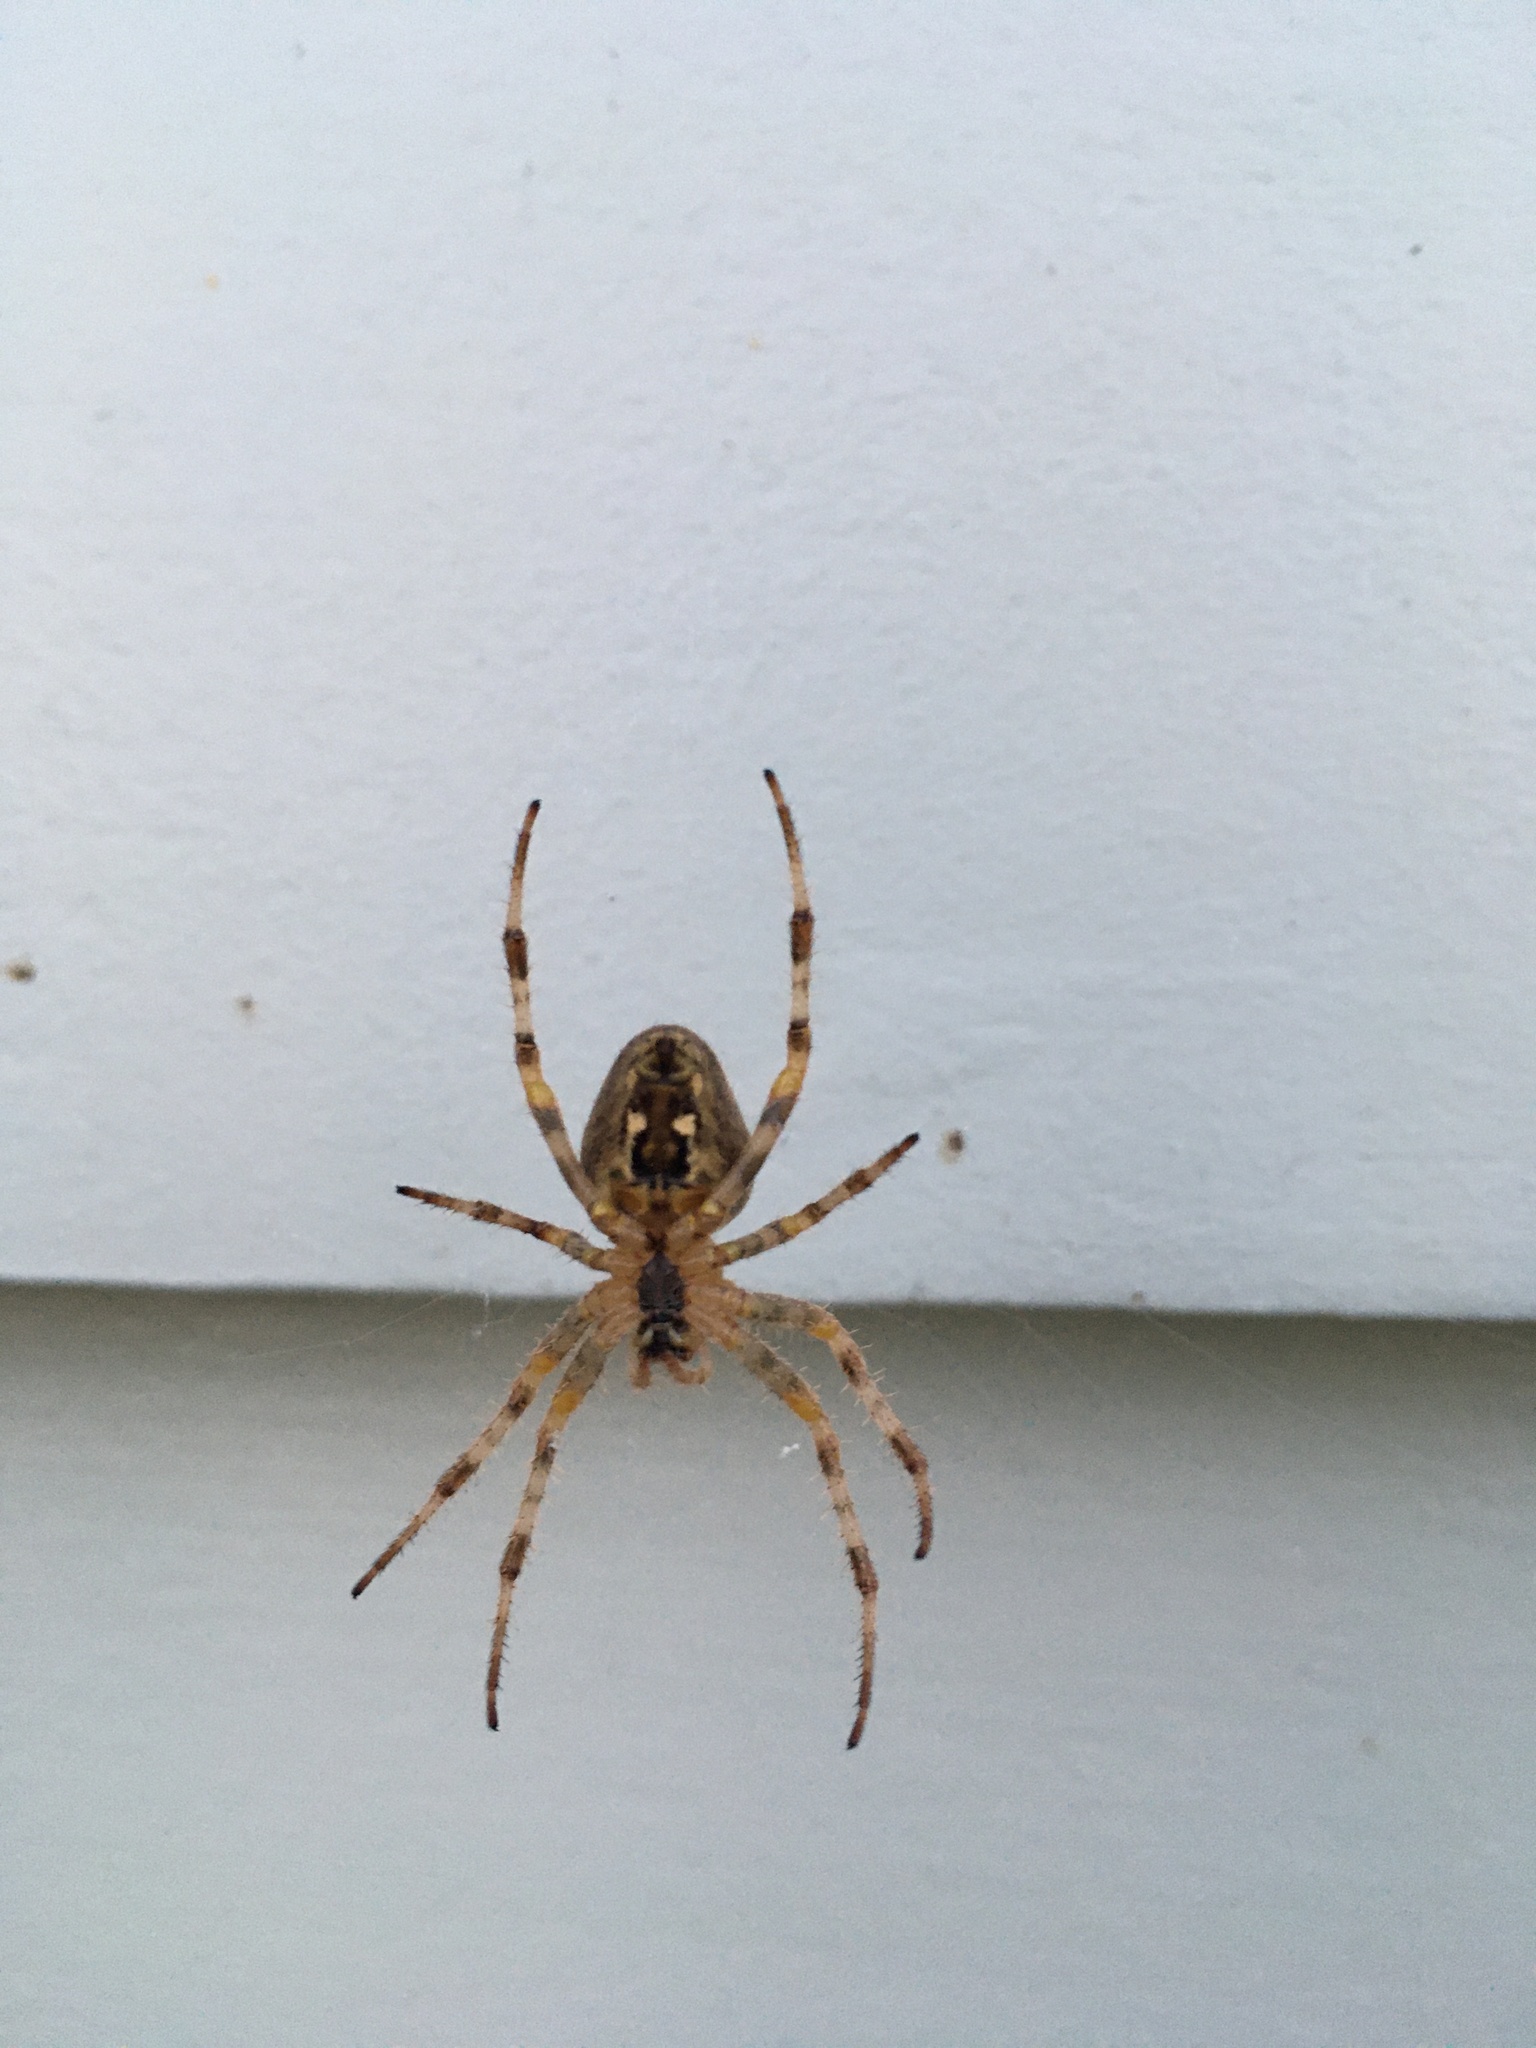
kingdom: Animalia
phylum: Arthropoda
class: Arachnida
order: Araneae
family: Araneidae
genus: Araneus
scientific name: Araneus diadematus
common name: Cross orbweaver
